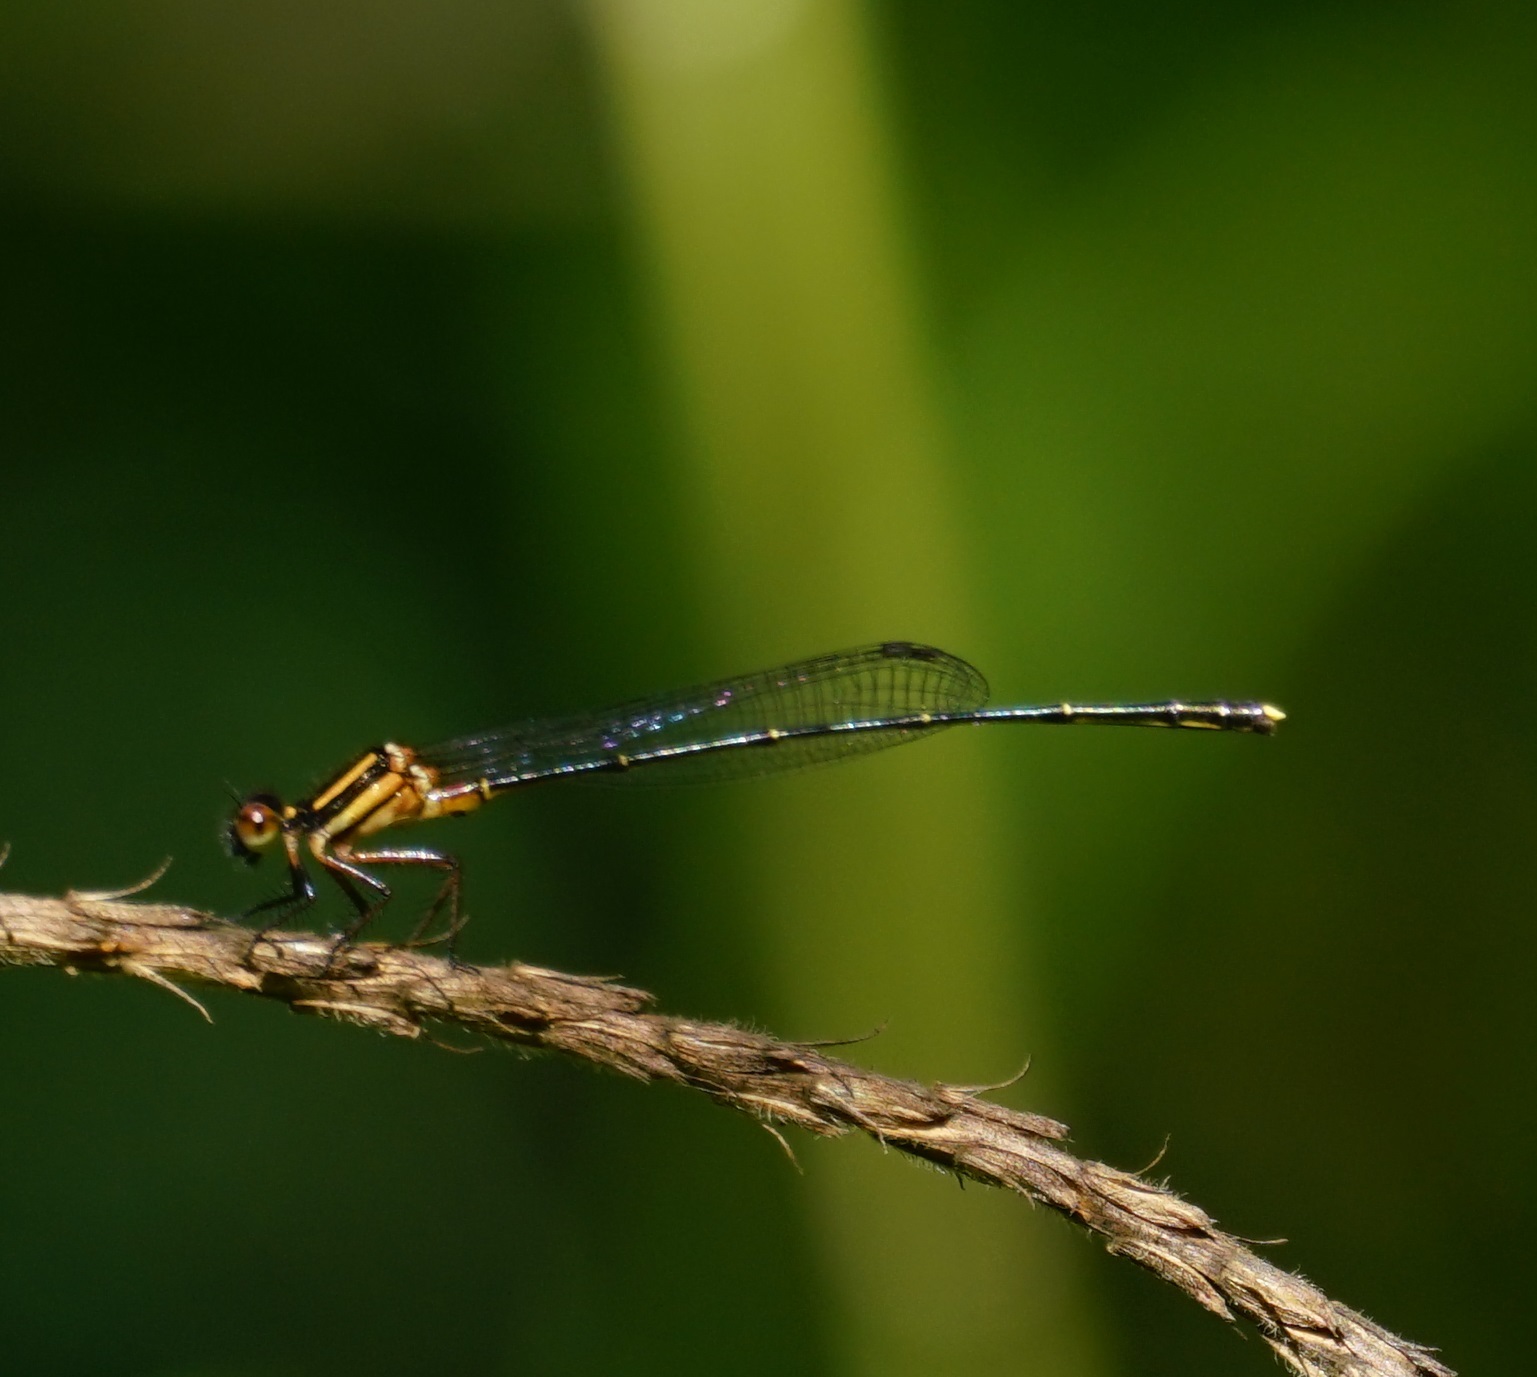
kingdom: Animalia
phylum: Arthropoda
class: Insecta
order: Odonata
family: Platycnemididae
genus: Nososticta
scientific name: Nososticta solida
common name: Orange threadtail
